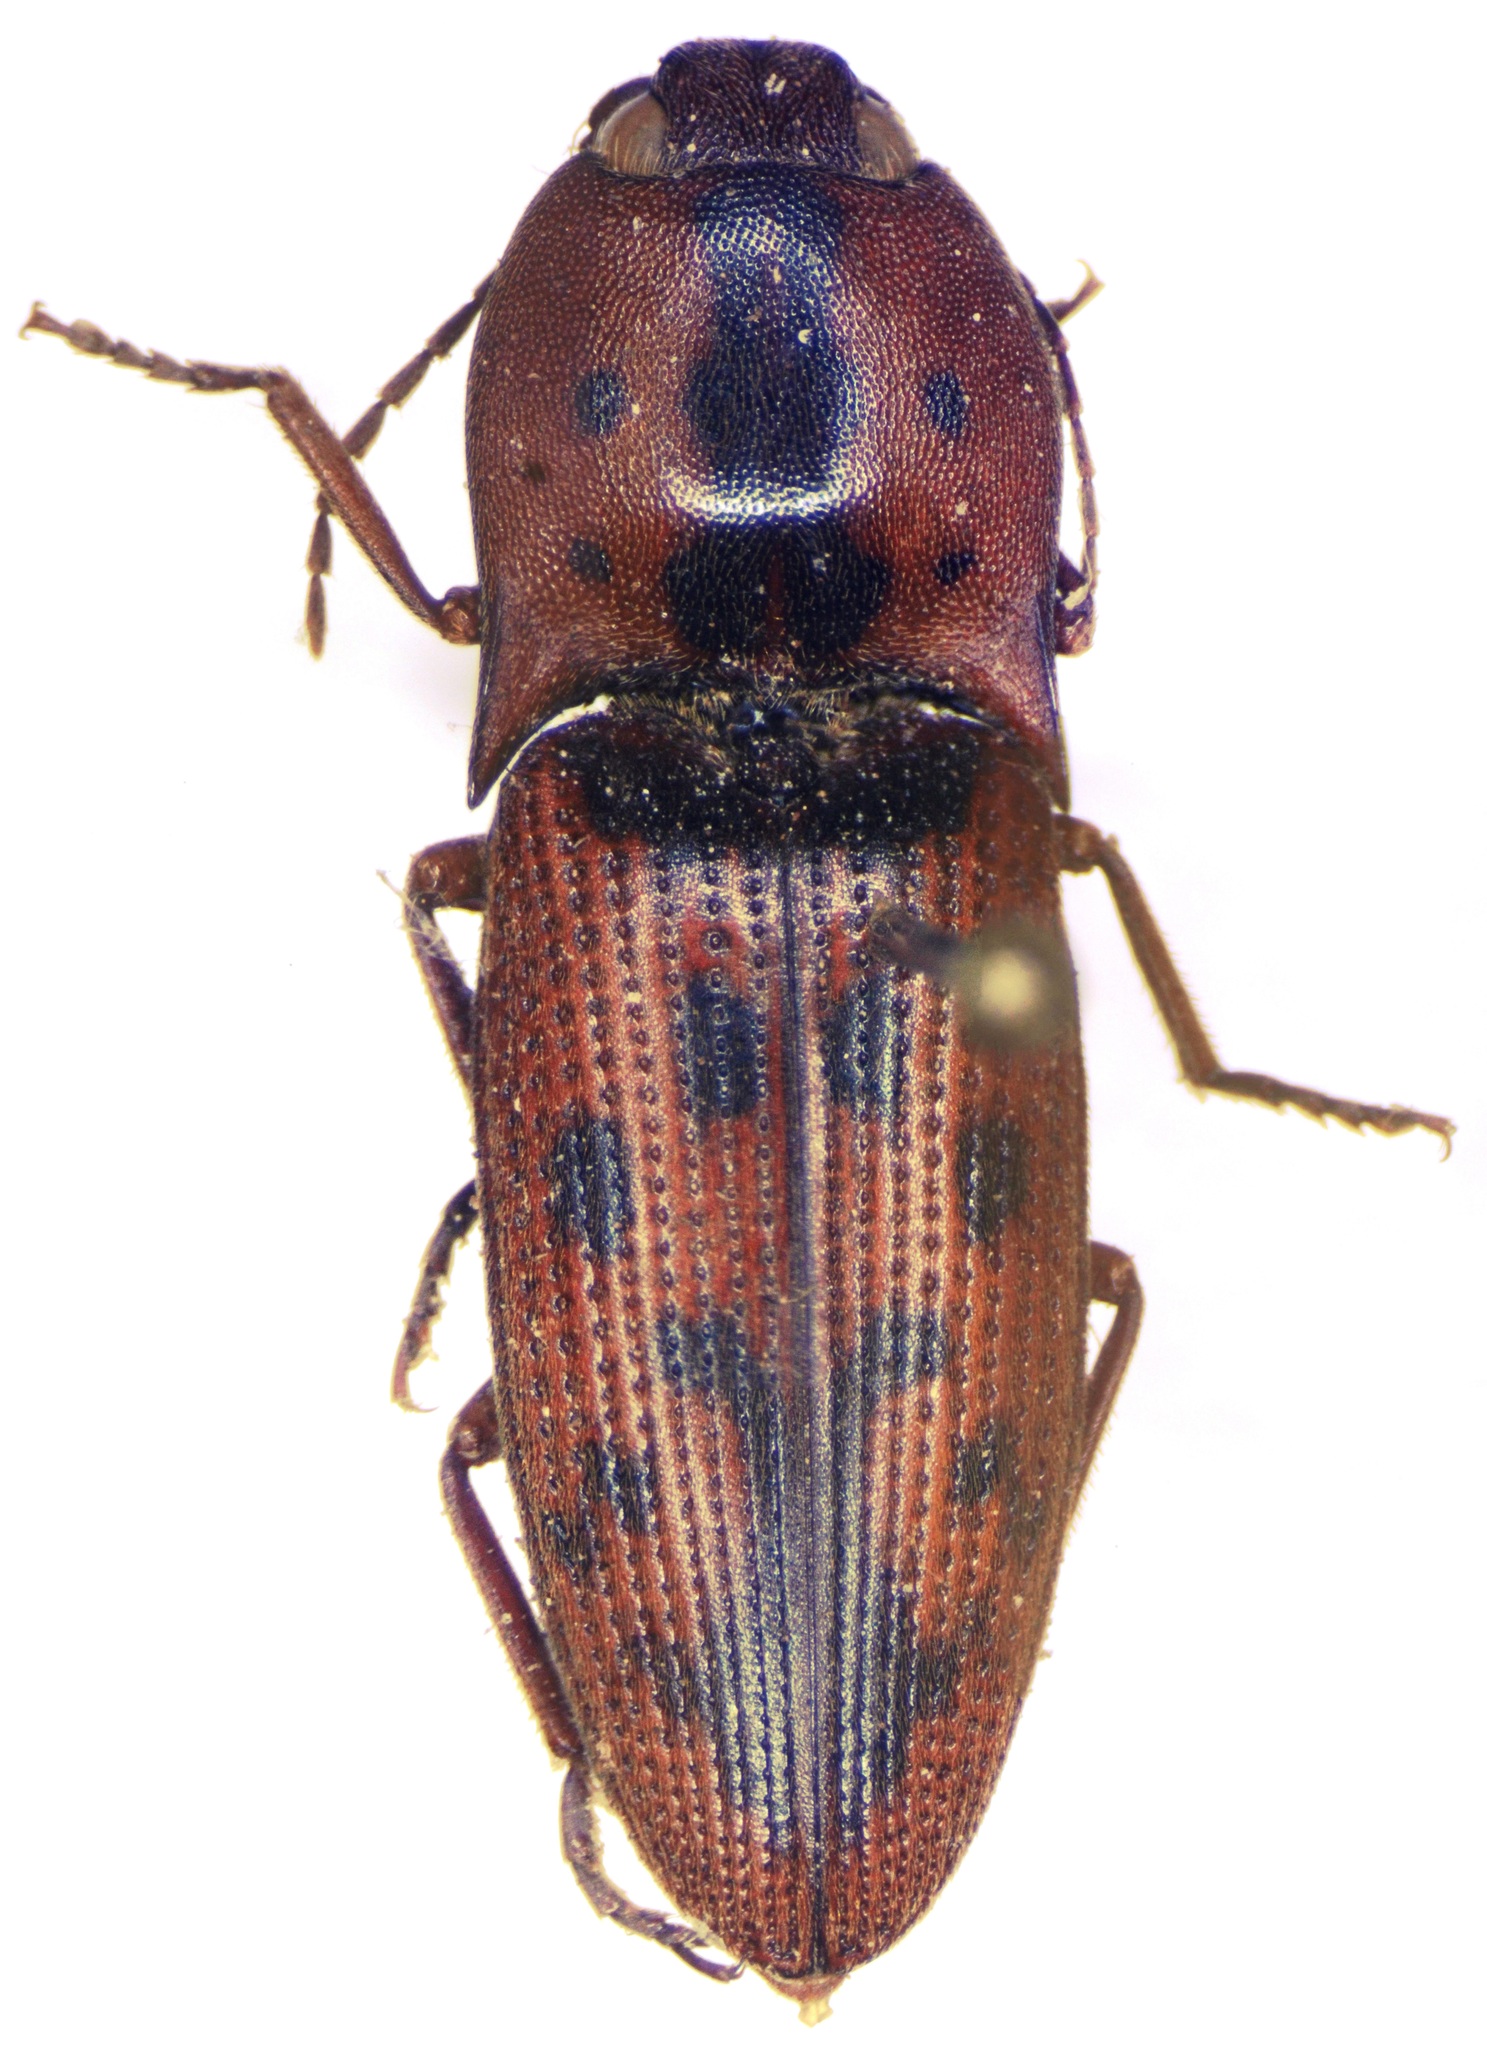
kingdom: Animalia
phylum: Arthropoda
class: Insecta
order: Coleoptera
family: Elateridae
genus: Monocrepidius
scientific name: Monocrepidius pilatei
